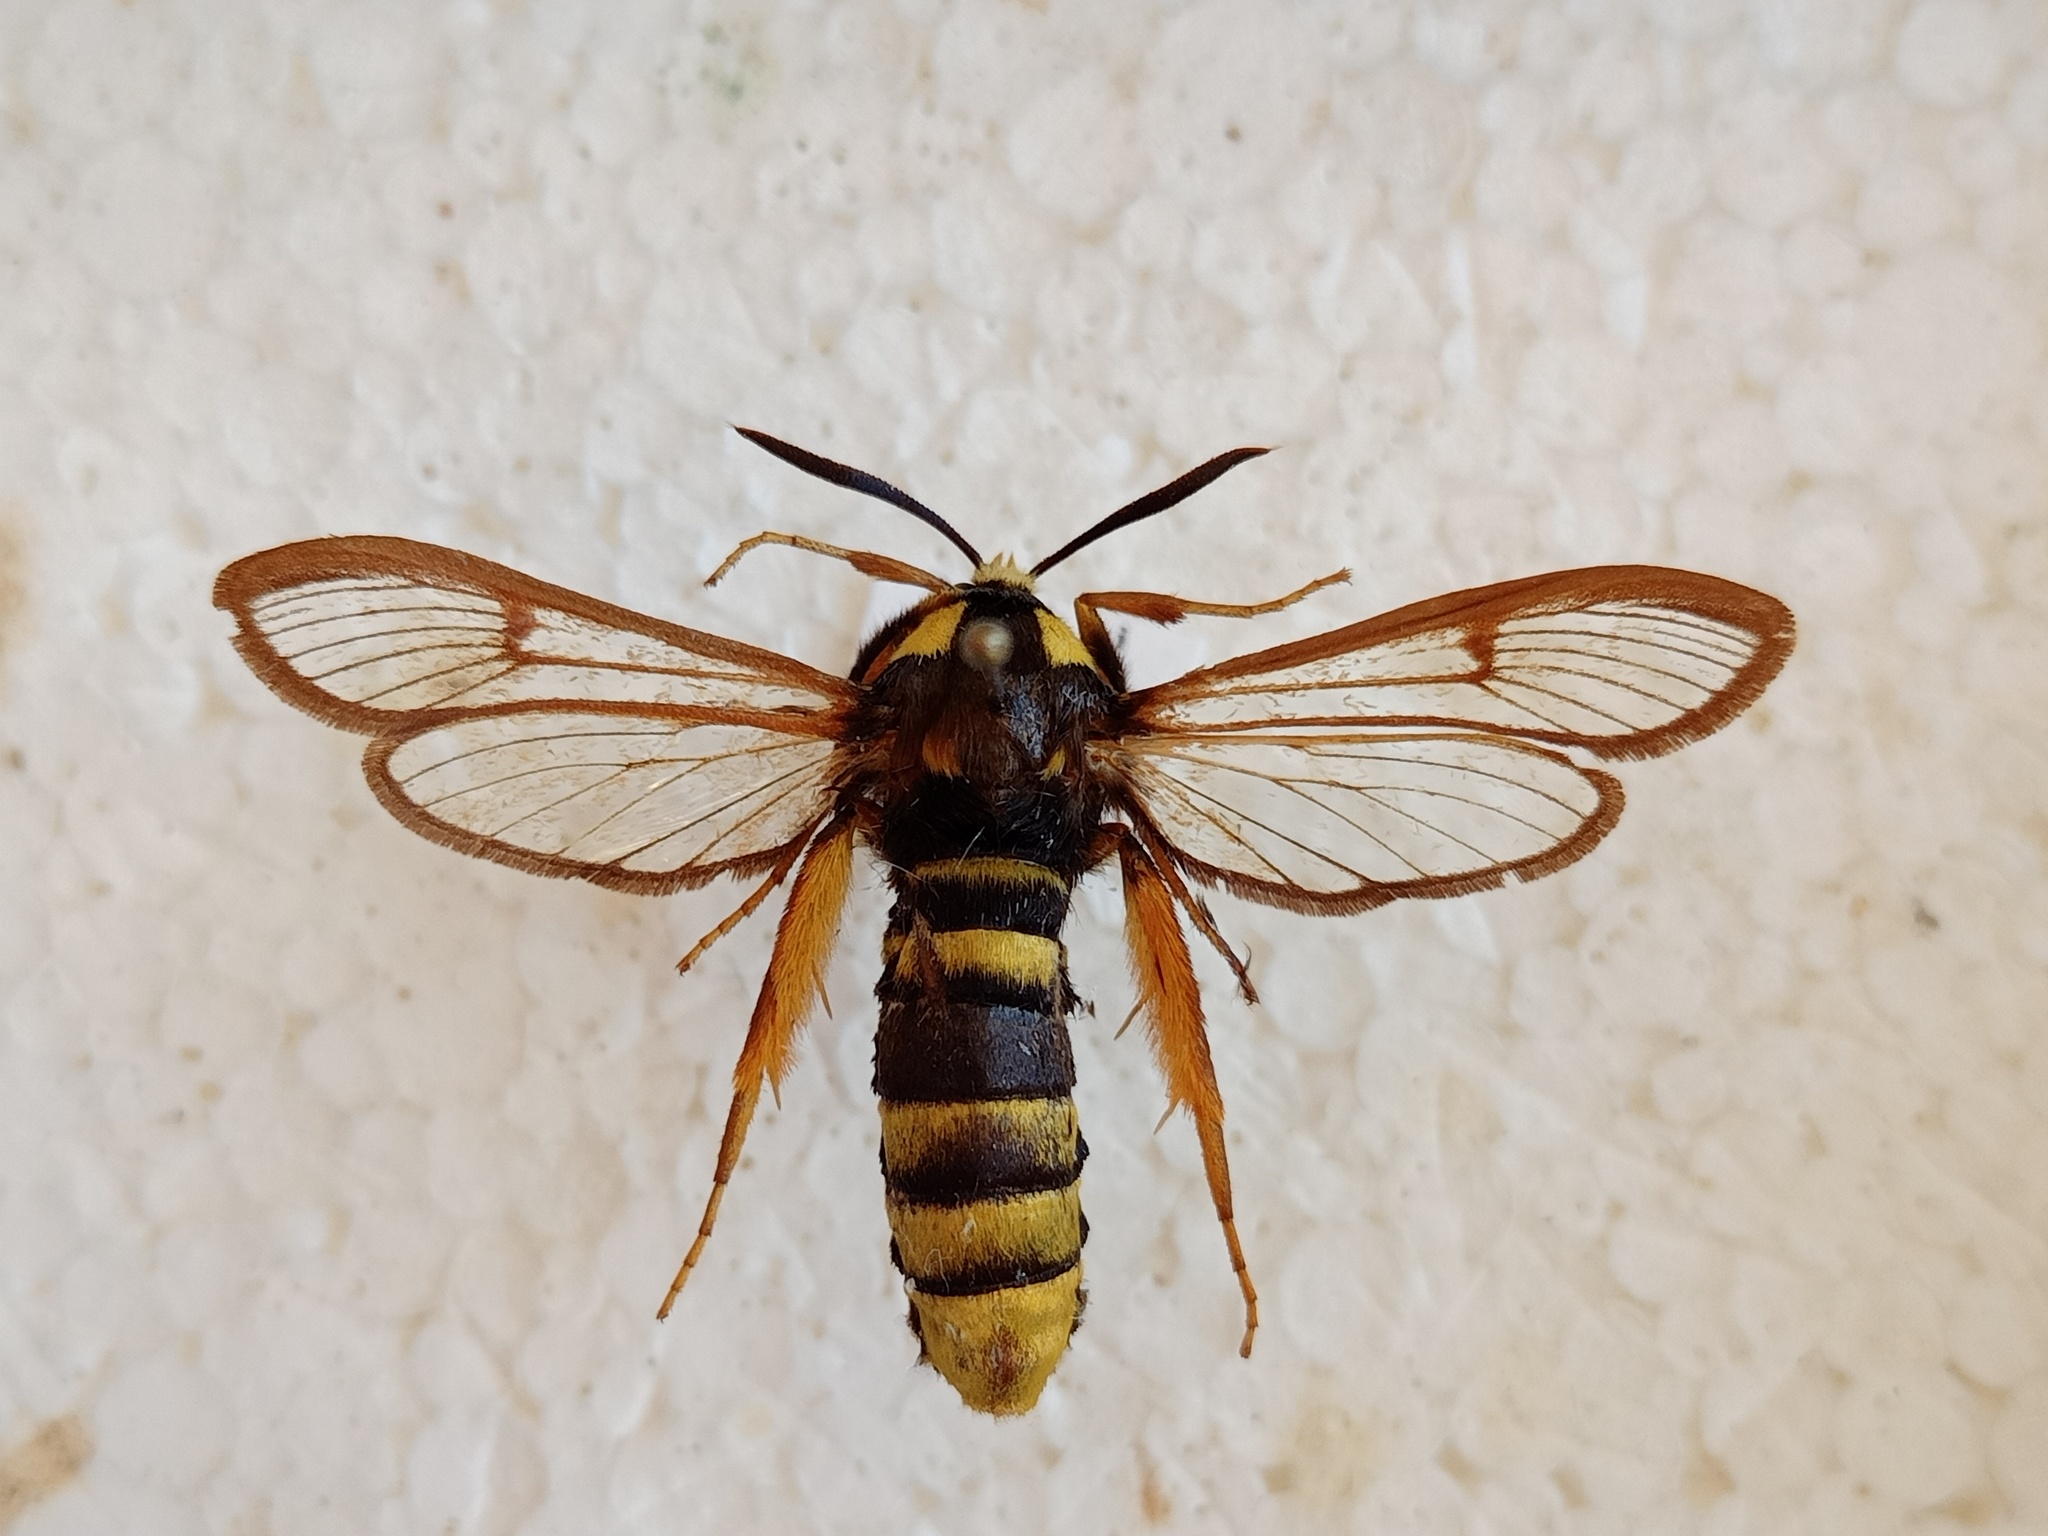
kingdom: Animalia
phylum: Arthropoda
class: Insecta
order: Lepidoptera
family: Sesiidae
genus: Sesia
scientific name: Sesia apiformis
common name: Hornet moth
